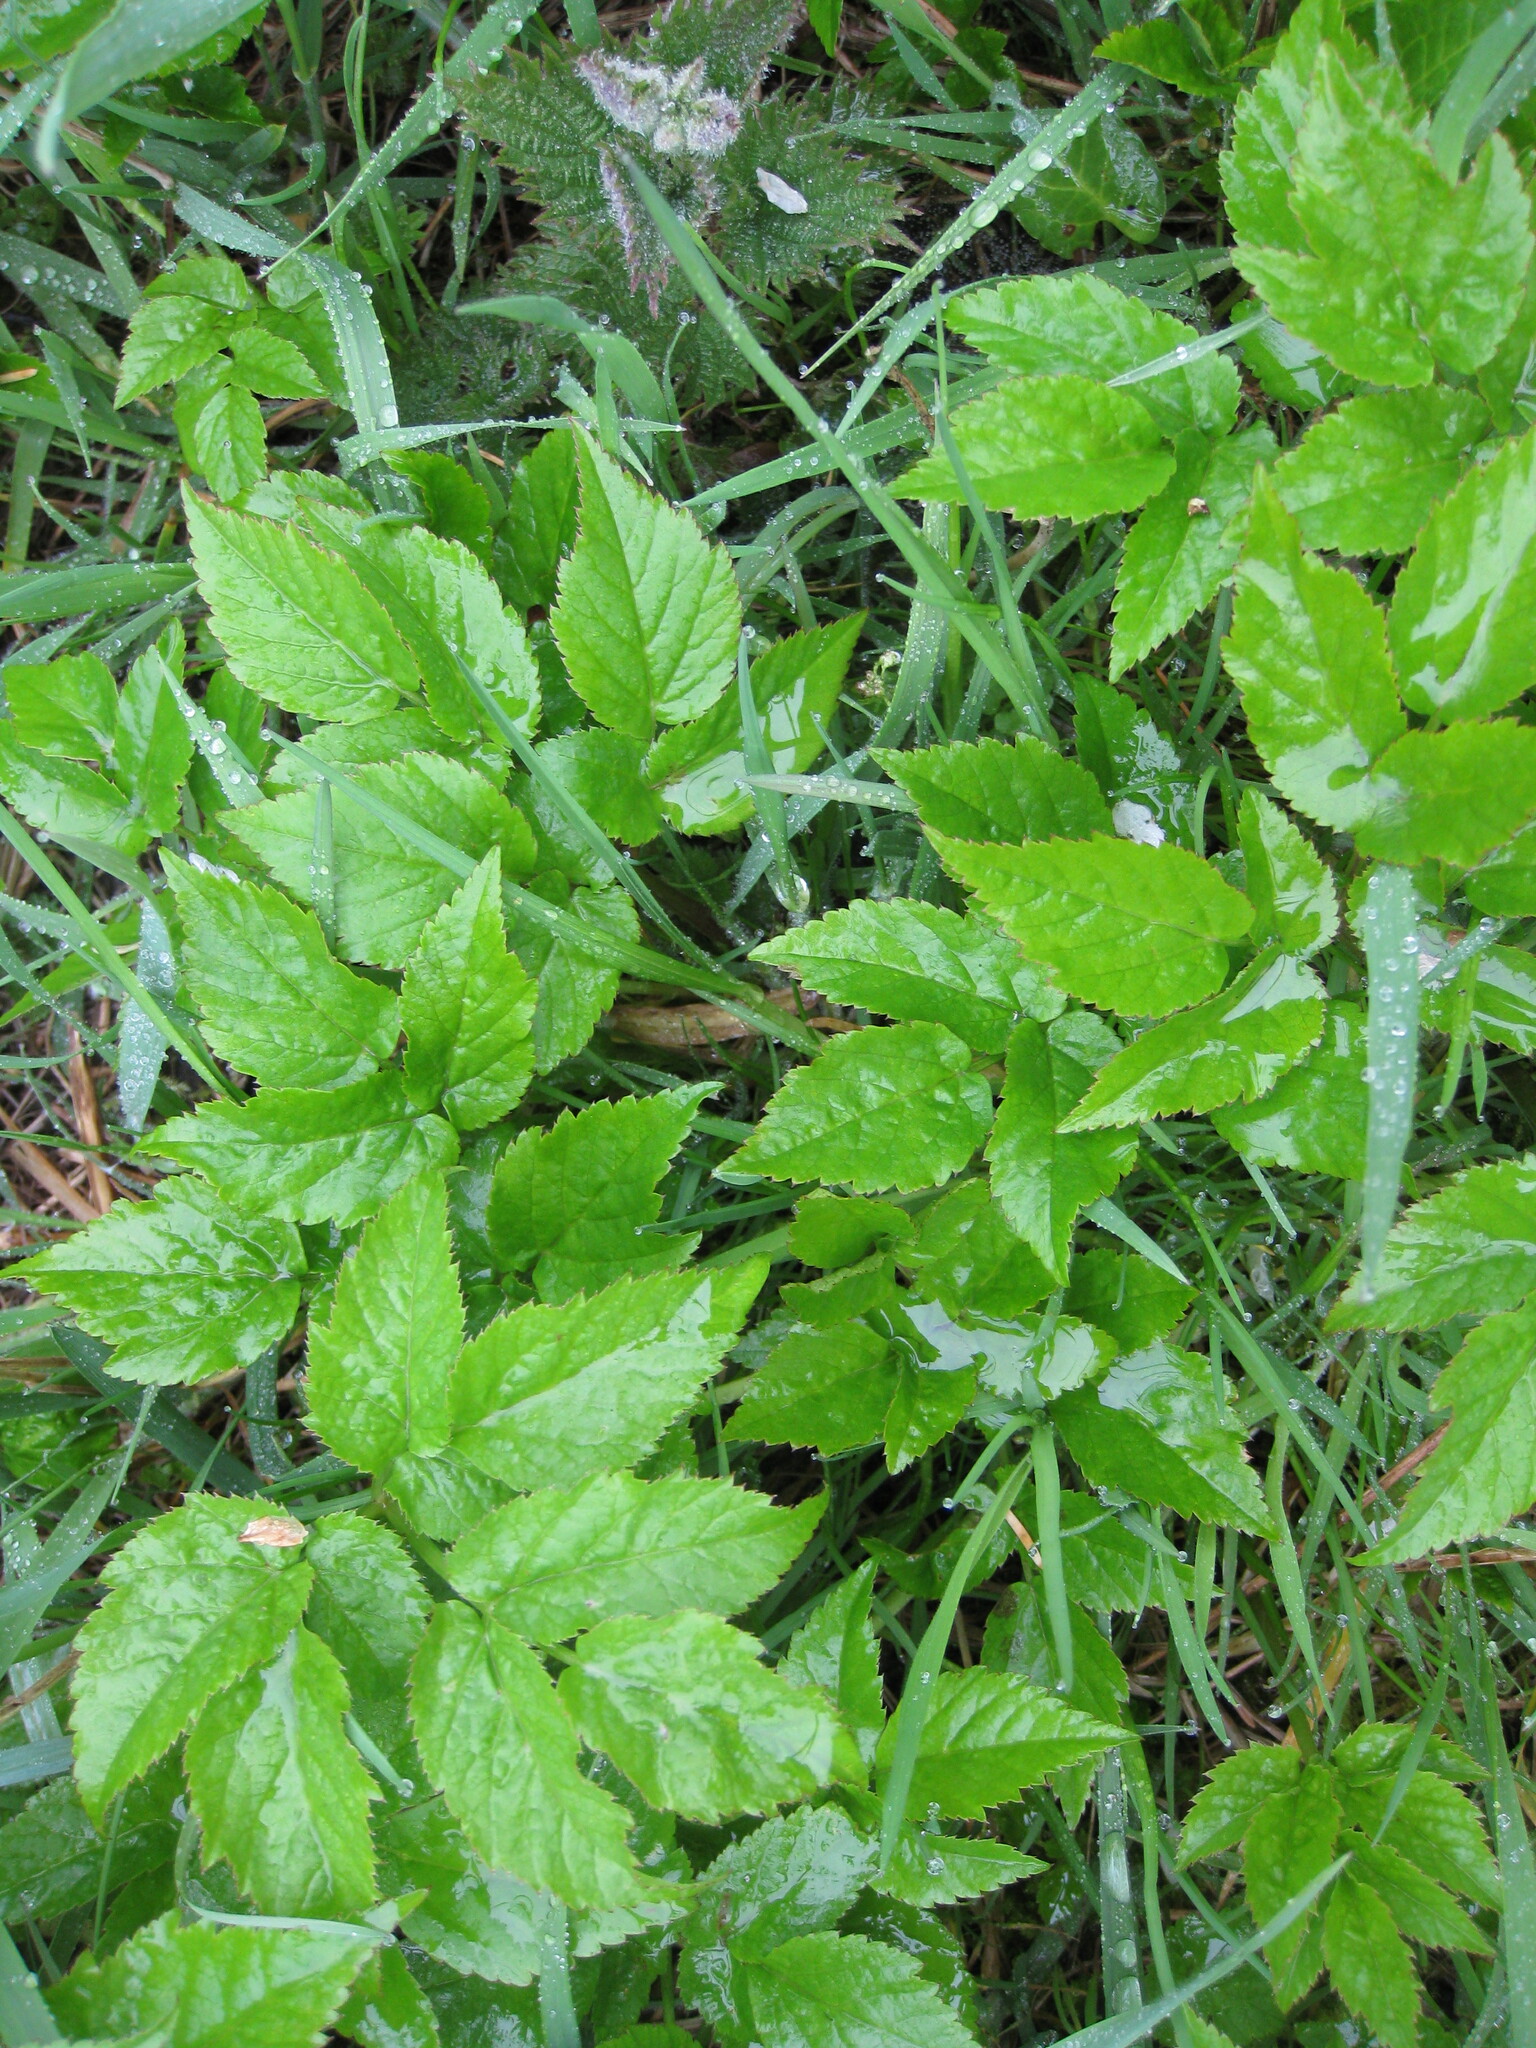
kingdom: Plantae
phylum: Tracheophyta
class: Magnoliopsida
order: Apiales
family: Apiaceae
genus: Aegopodium
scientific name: Aegopodium podagraria
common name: Ground-elder
